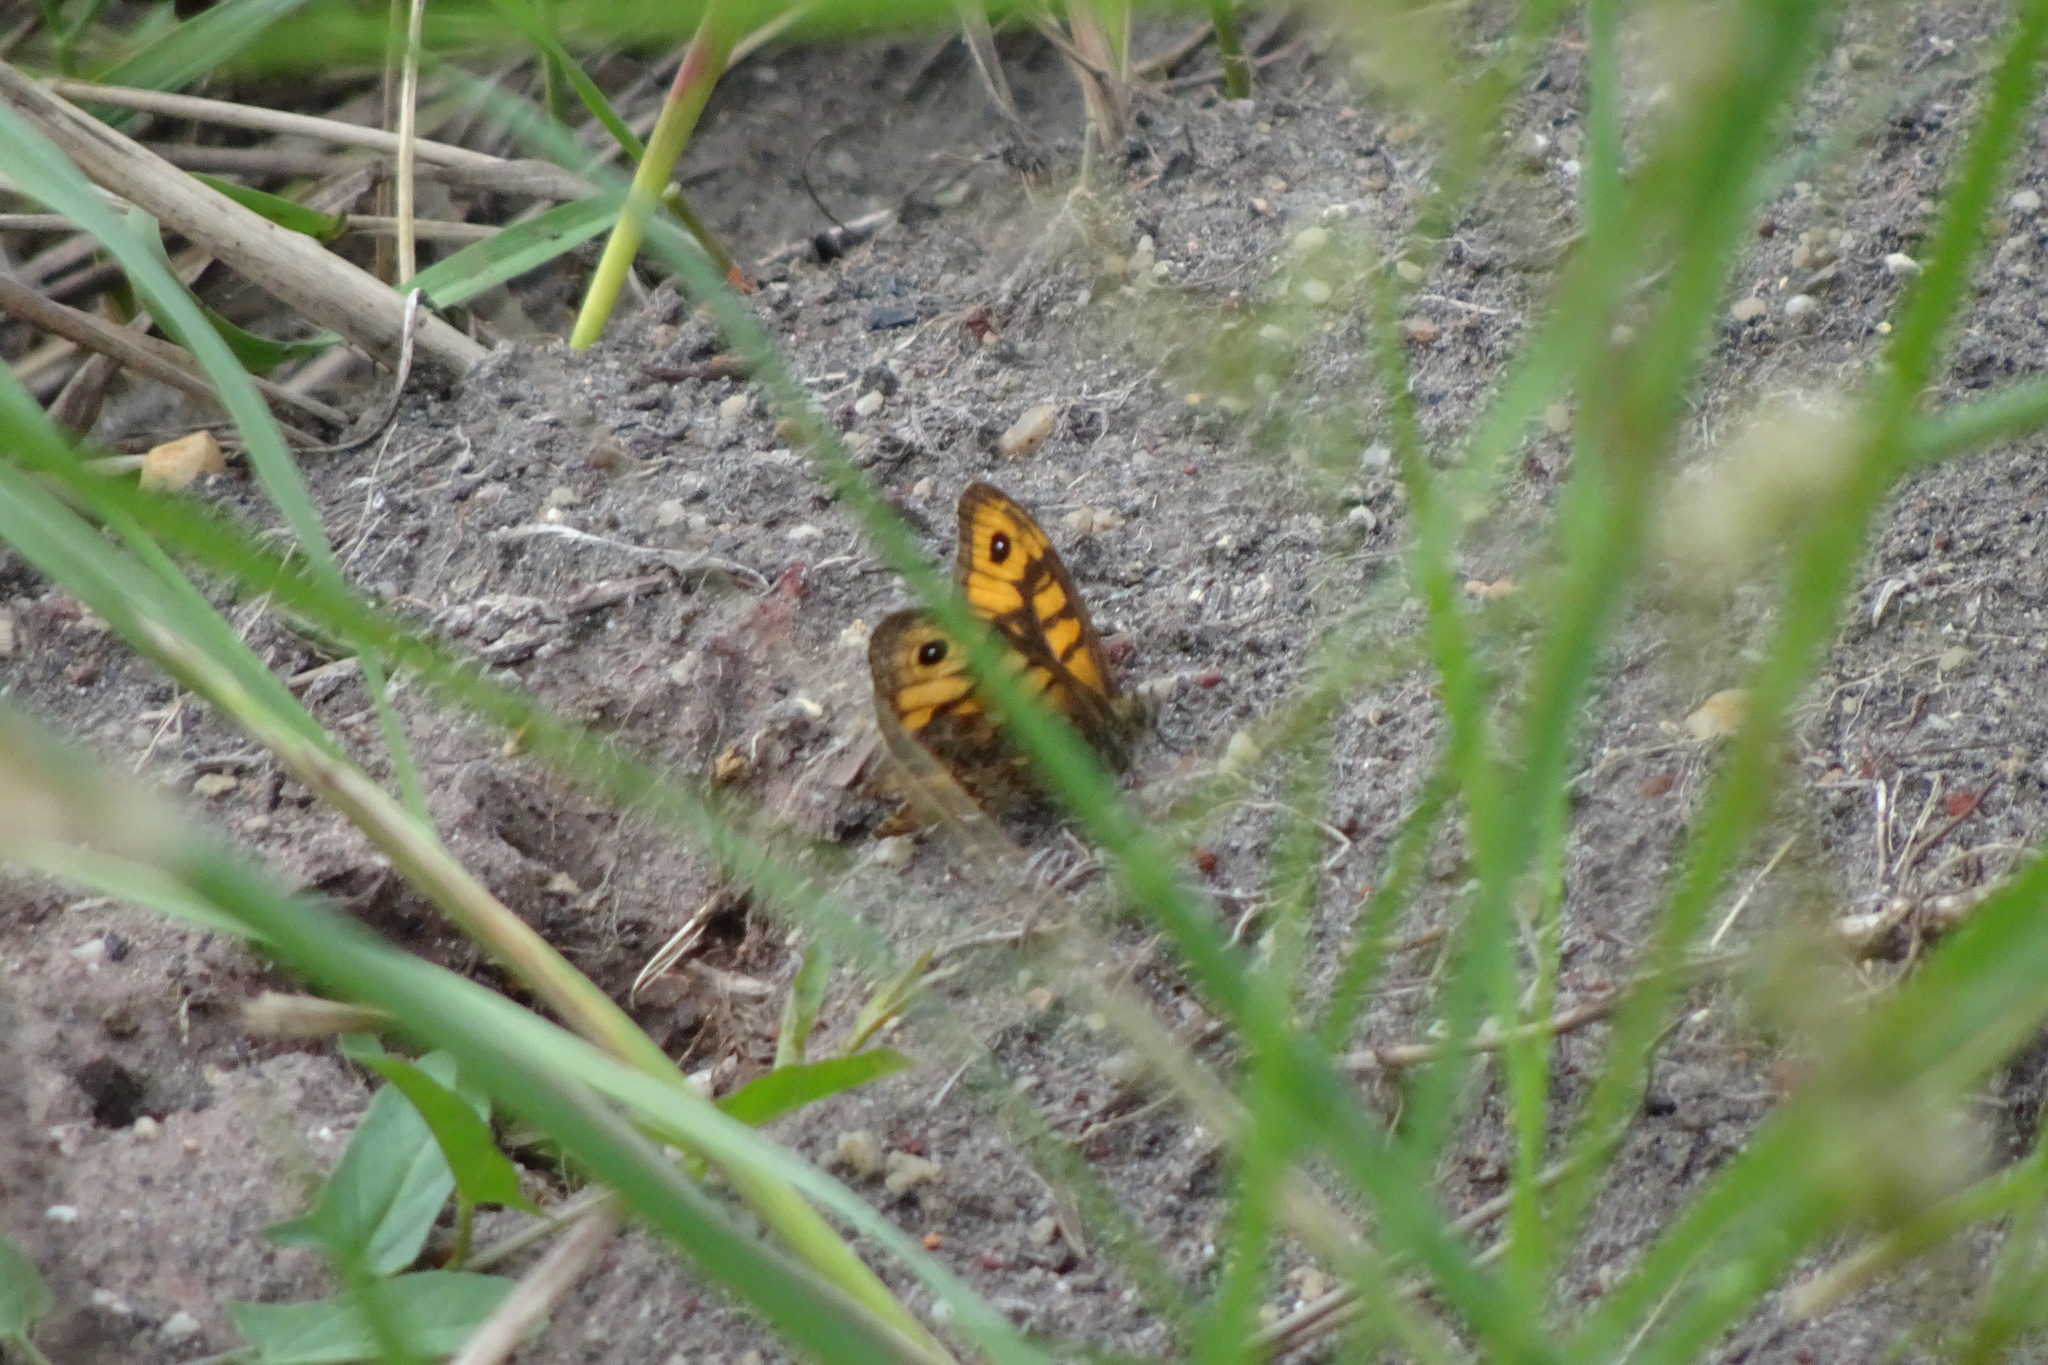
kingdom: Animalia
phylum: Arthropoda
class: Insecta
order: Lepidoptera
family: Nymphalidae
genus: Pararge
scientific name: Pararge Lasiommata megera
